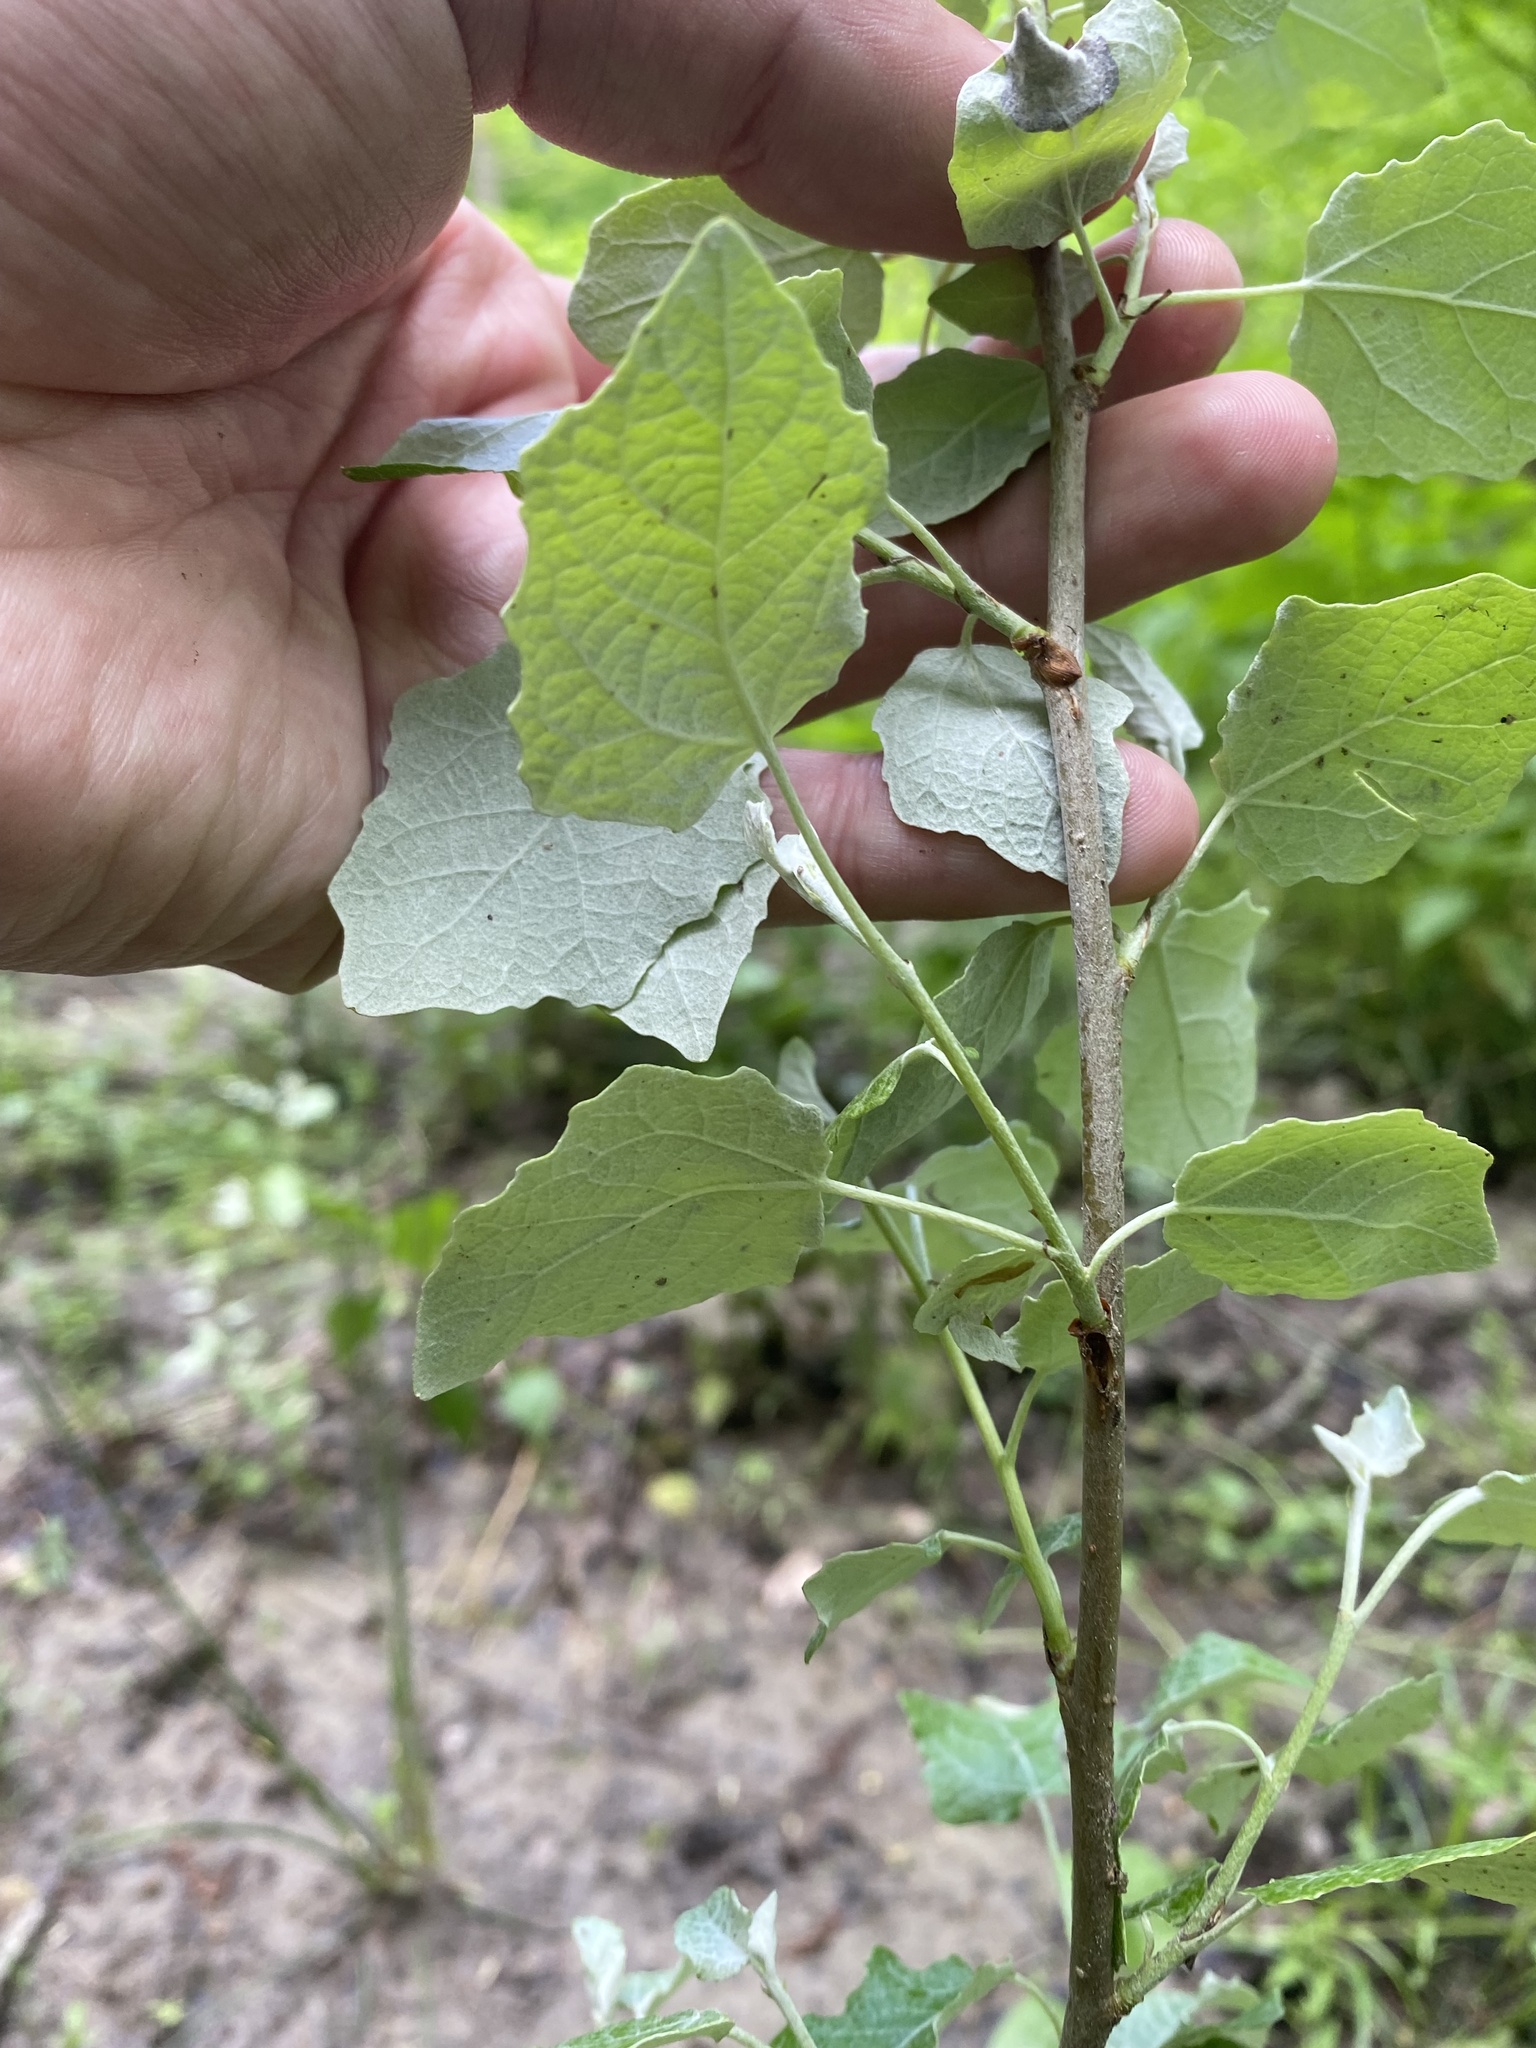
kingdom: Plantae
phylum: Tracheophyta
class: Magnoliopsida
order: Malpighiales
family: Salicaceae
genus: Populus
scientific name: Populus alba
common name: White poplar
